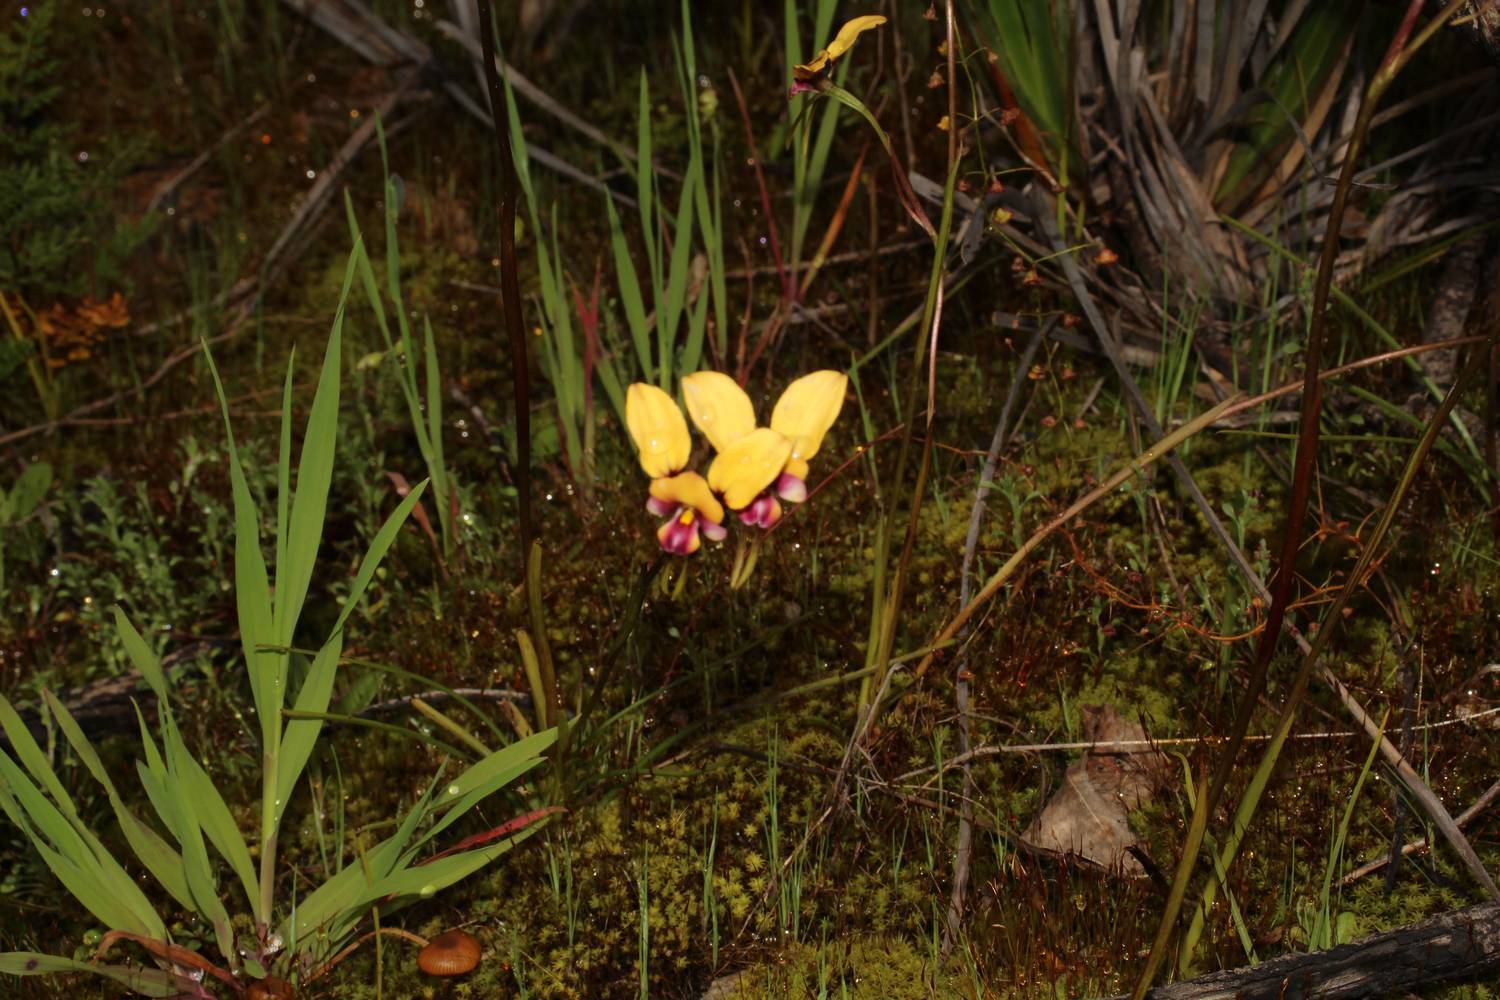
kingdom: Plantae
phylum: Tracheophyta
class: Liliopsida
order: Asparagales
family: Orchidaceae
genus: Diuris
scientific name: Diuris pulchella
